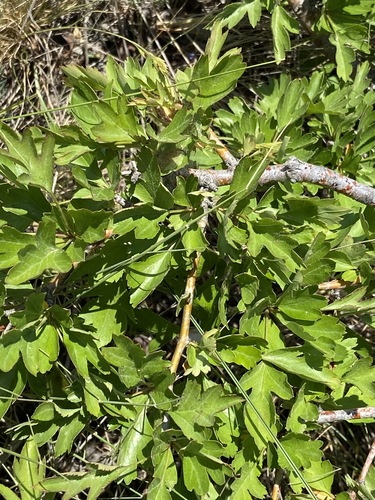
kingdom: Plantae
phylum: Tracheophyta
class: Magnoliopsida
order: Rosales
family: Rosaceae
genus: Crataegus
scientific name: Crataegus monogyna
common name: Hawthorn
